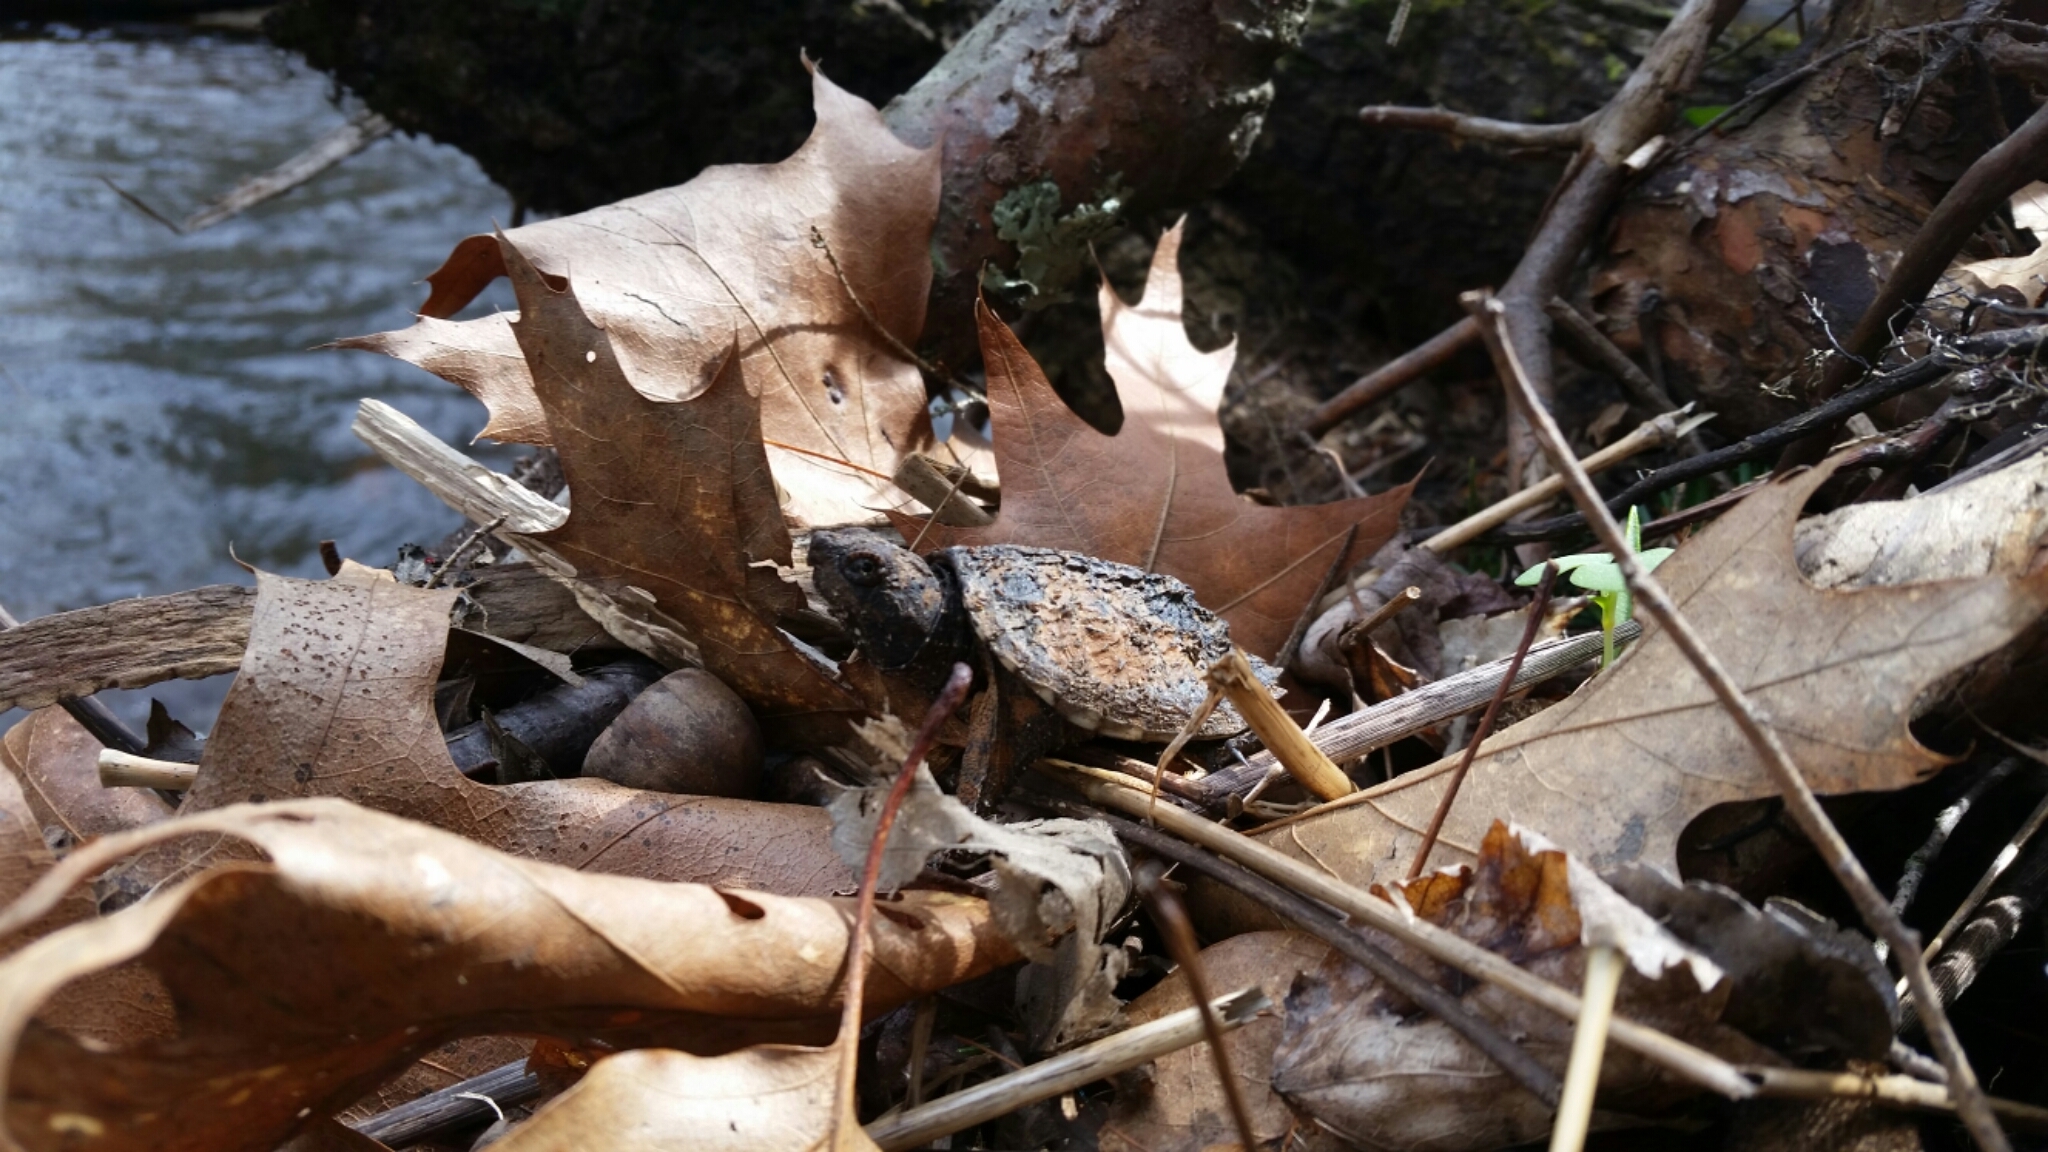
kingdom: Animalia
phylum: Chordata
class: Testudines
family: Chelydridae
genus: Chelydra
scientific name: Chelydra serpentina
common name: Common snapping turtle
